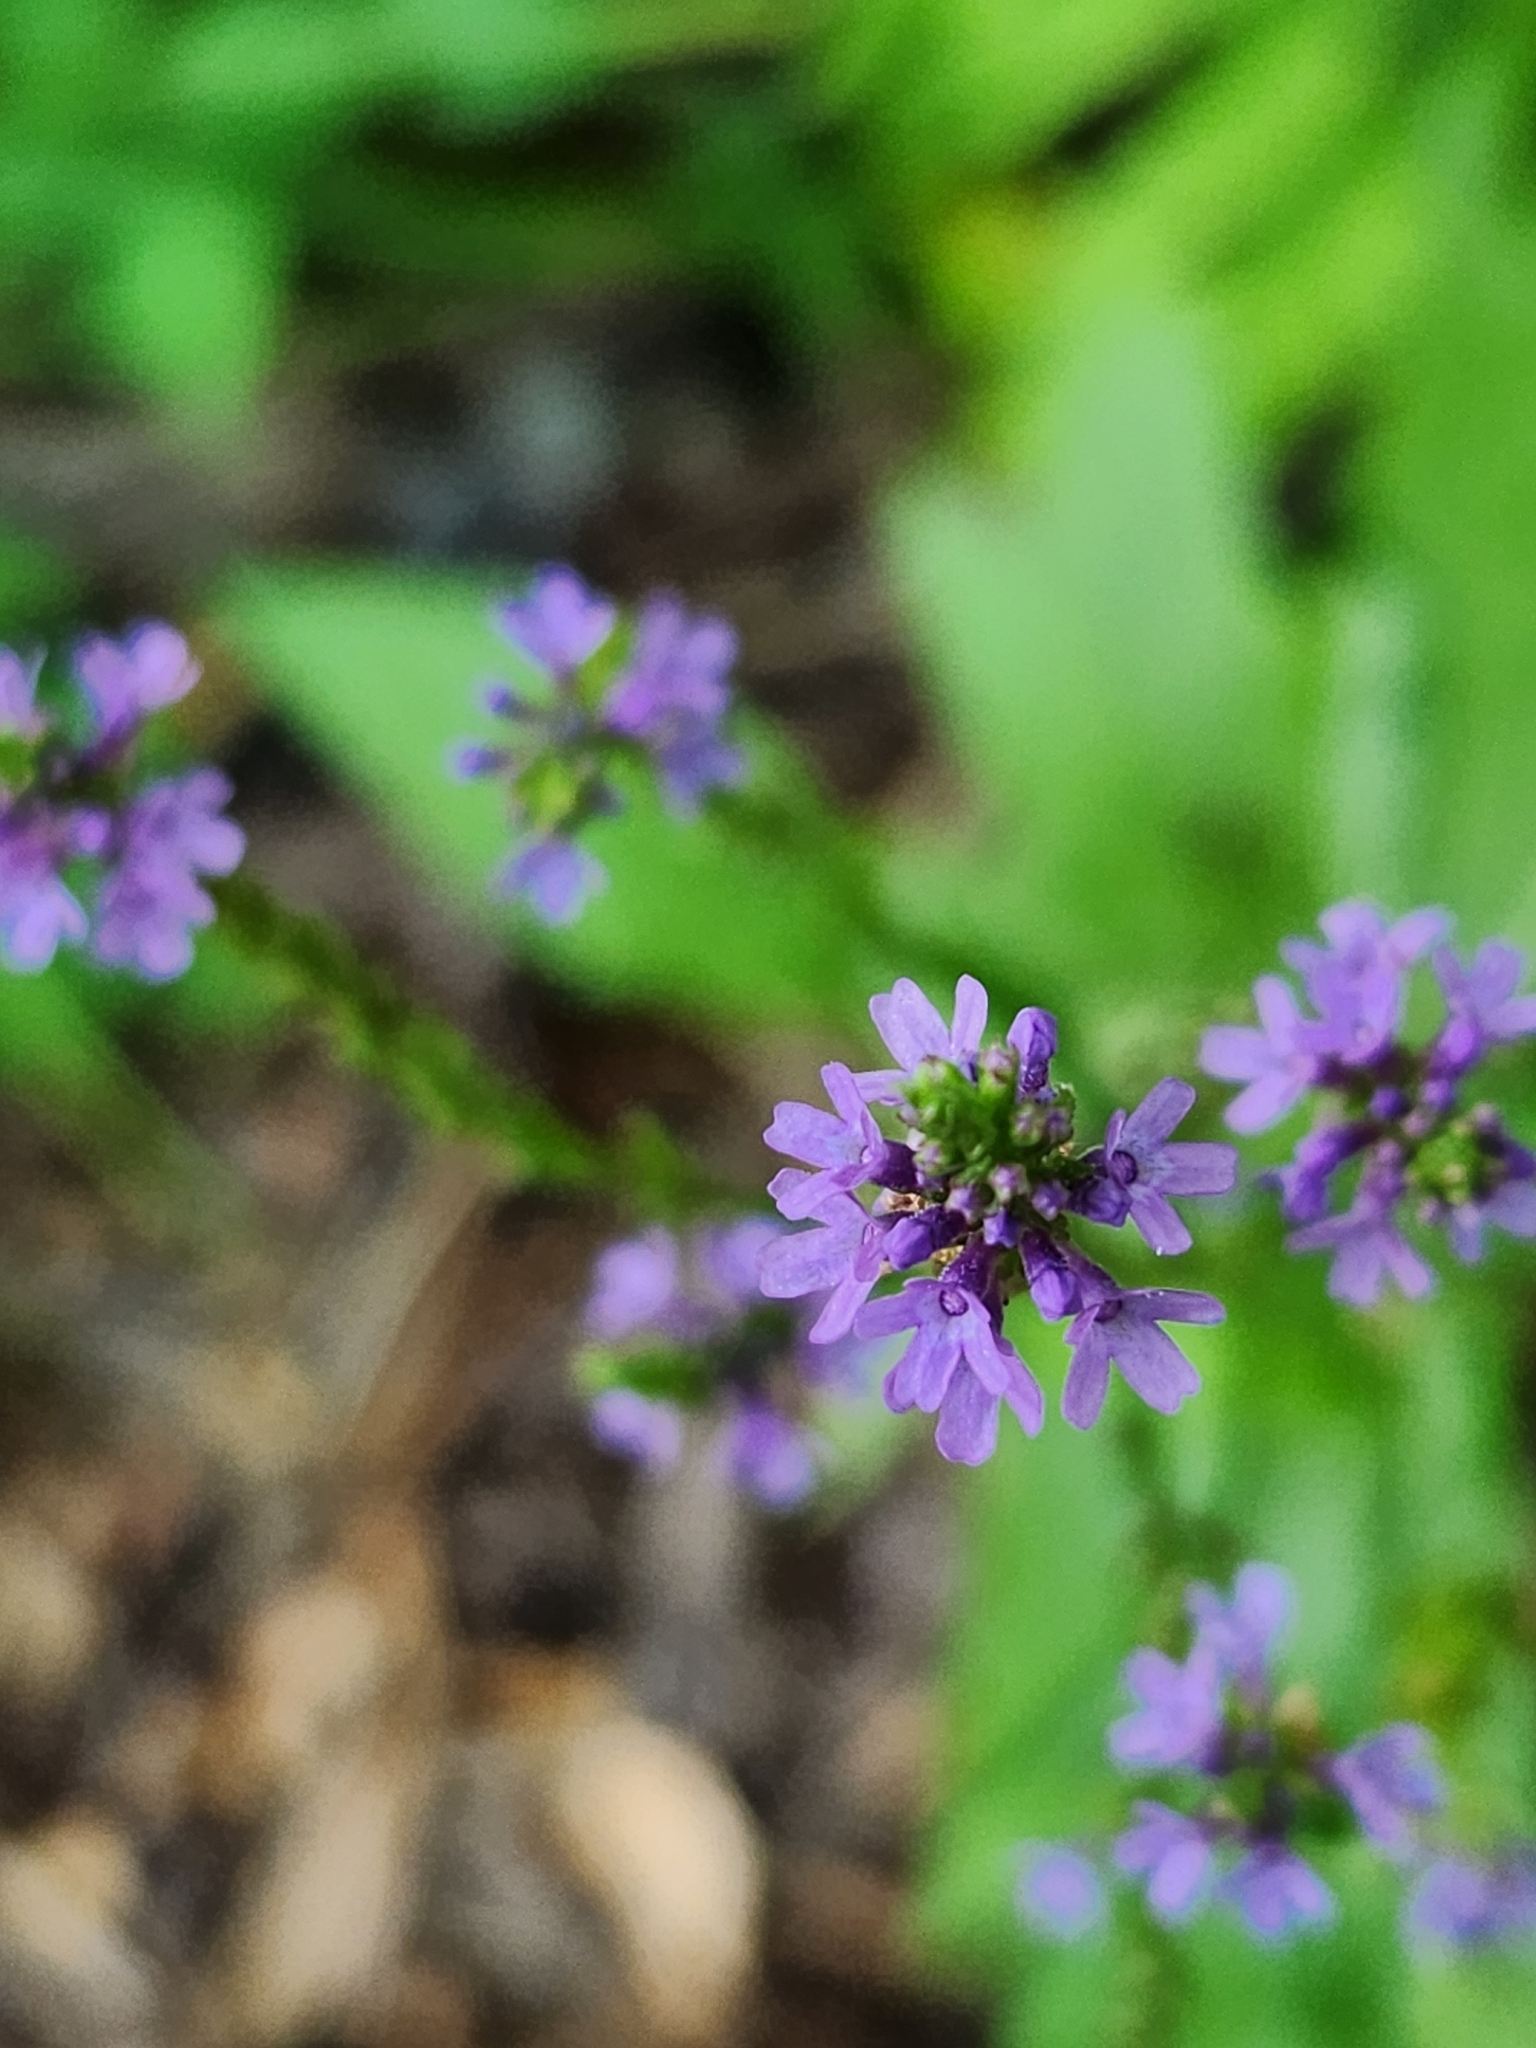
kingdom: Plantae
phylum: Tracheophyta
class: Magnoliopsida
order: Lamiales
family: Verbenaceae
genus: Verbena
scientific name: Verbena hastata
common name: American blue vervain
